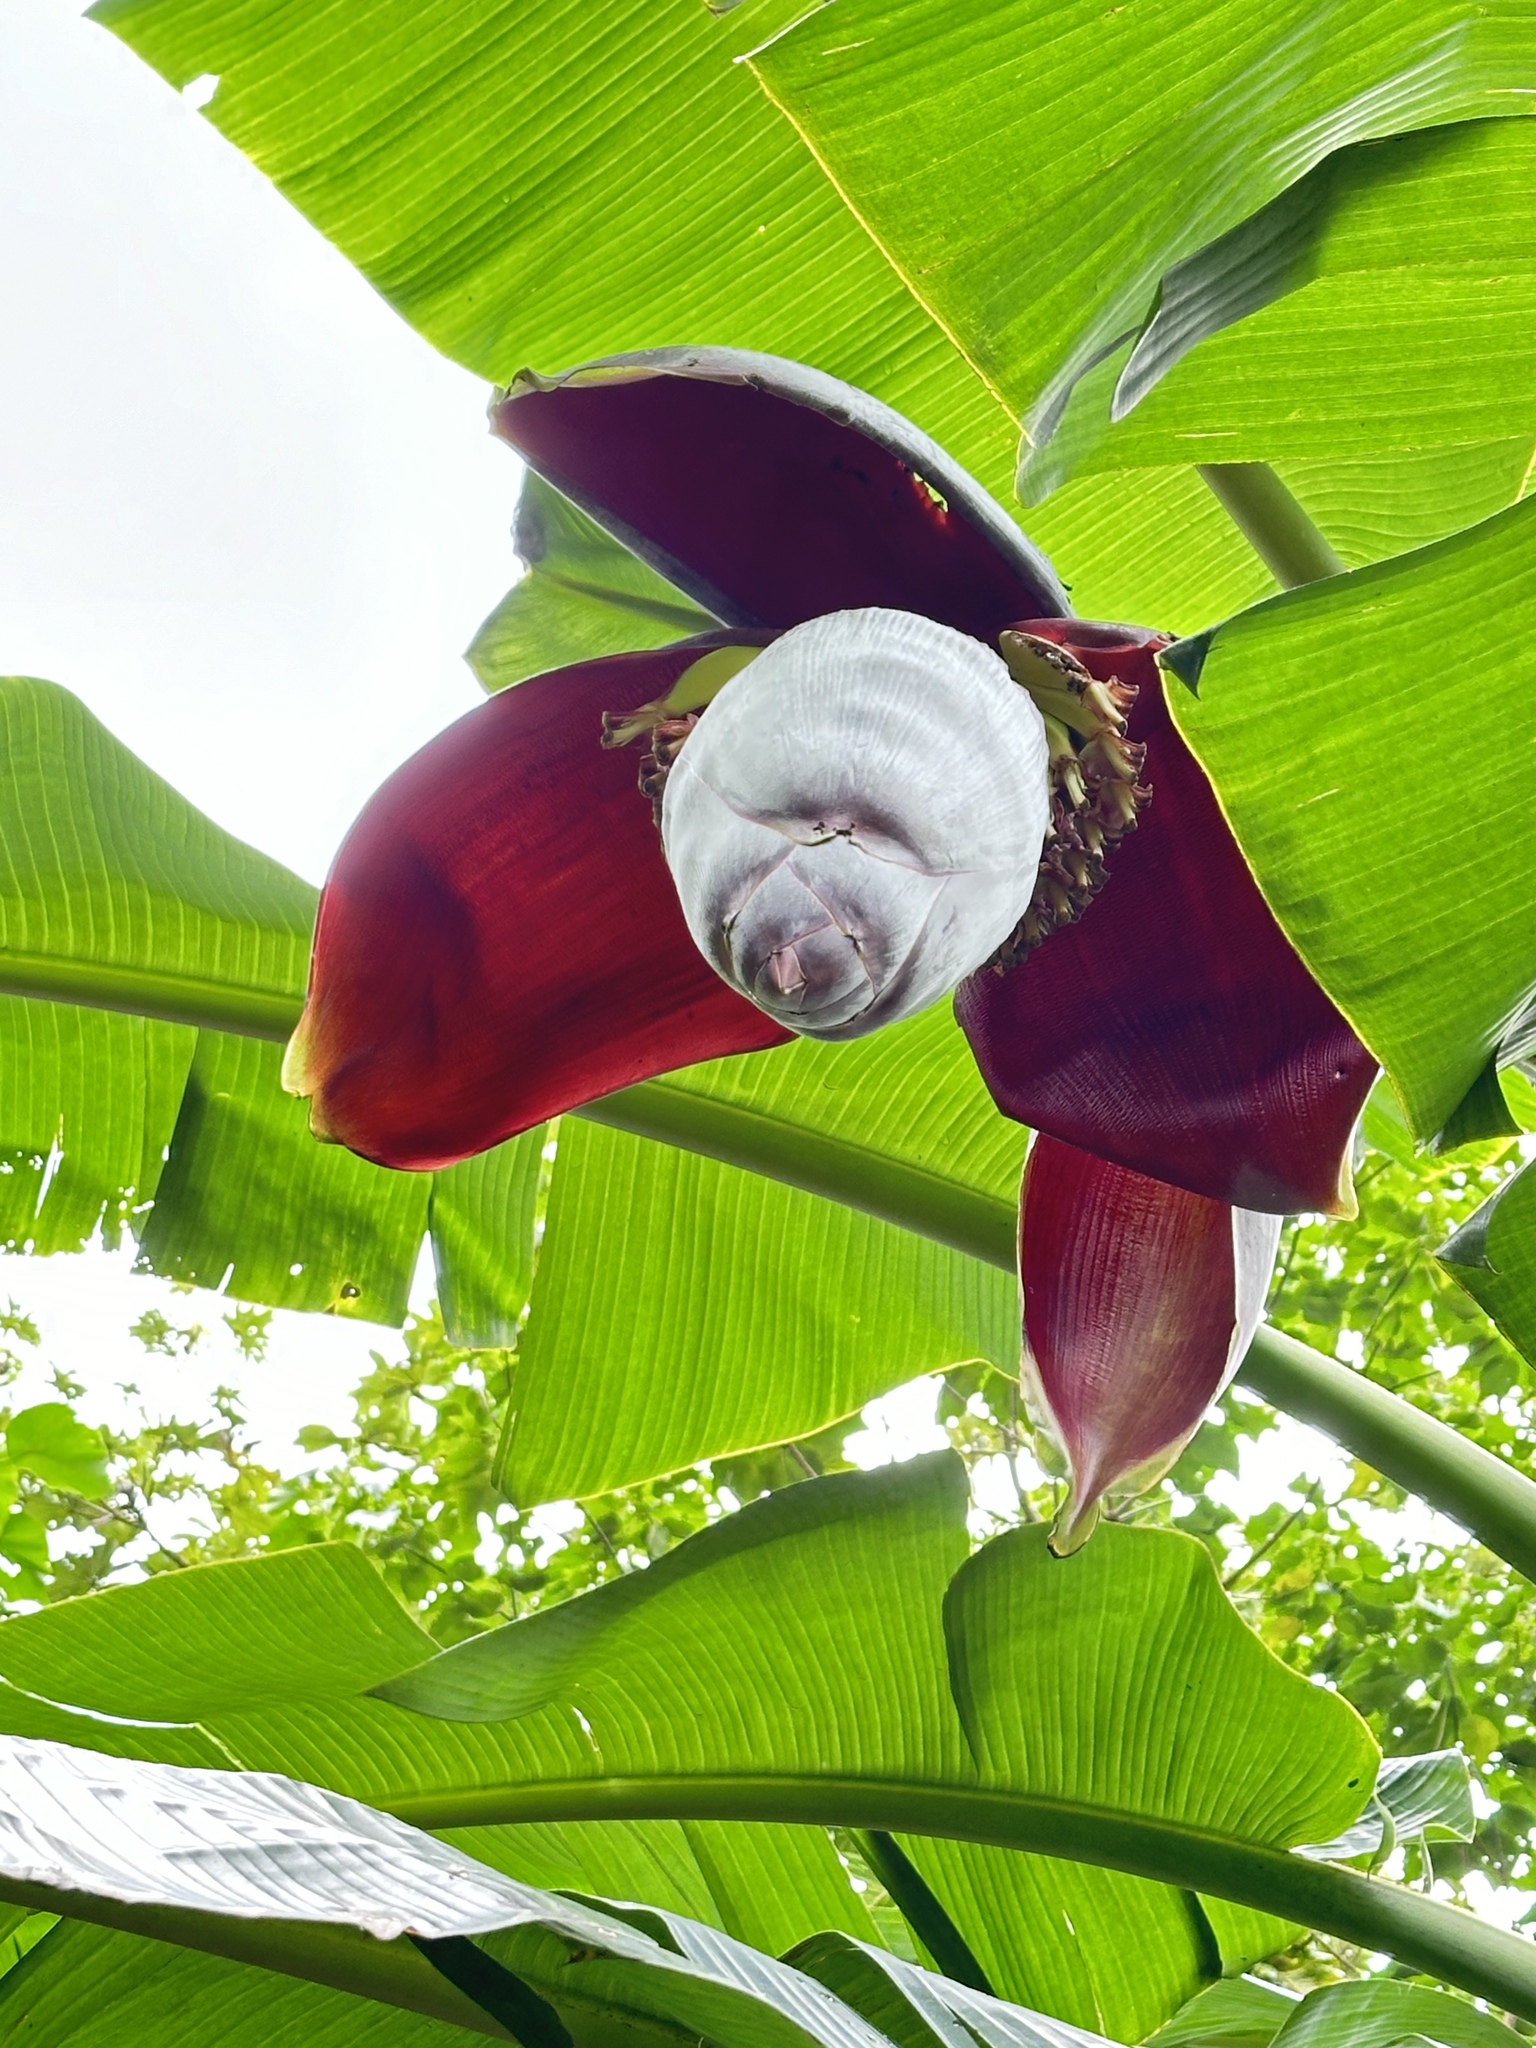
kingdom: Plantae
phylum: Tracheophyta
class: Liliopsida
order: Zingiberales
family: Musaceae
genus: Musa
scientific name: Musa paradisiaca
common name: French plantain
